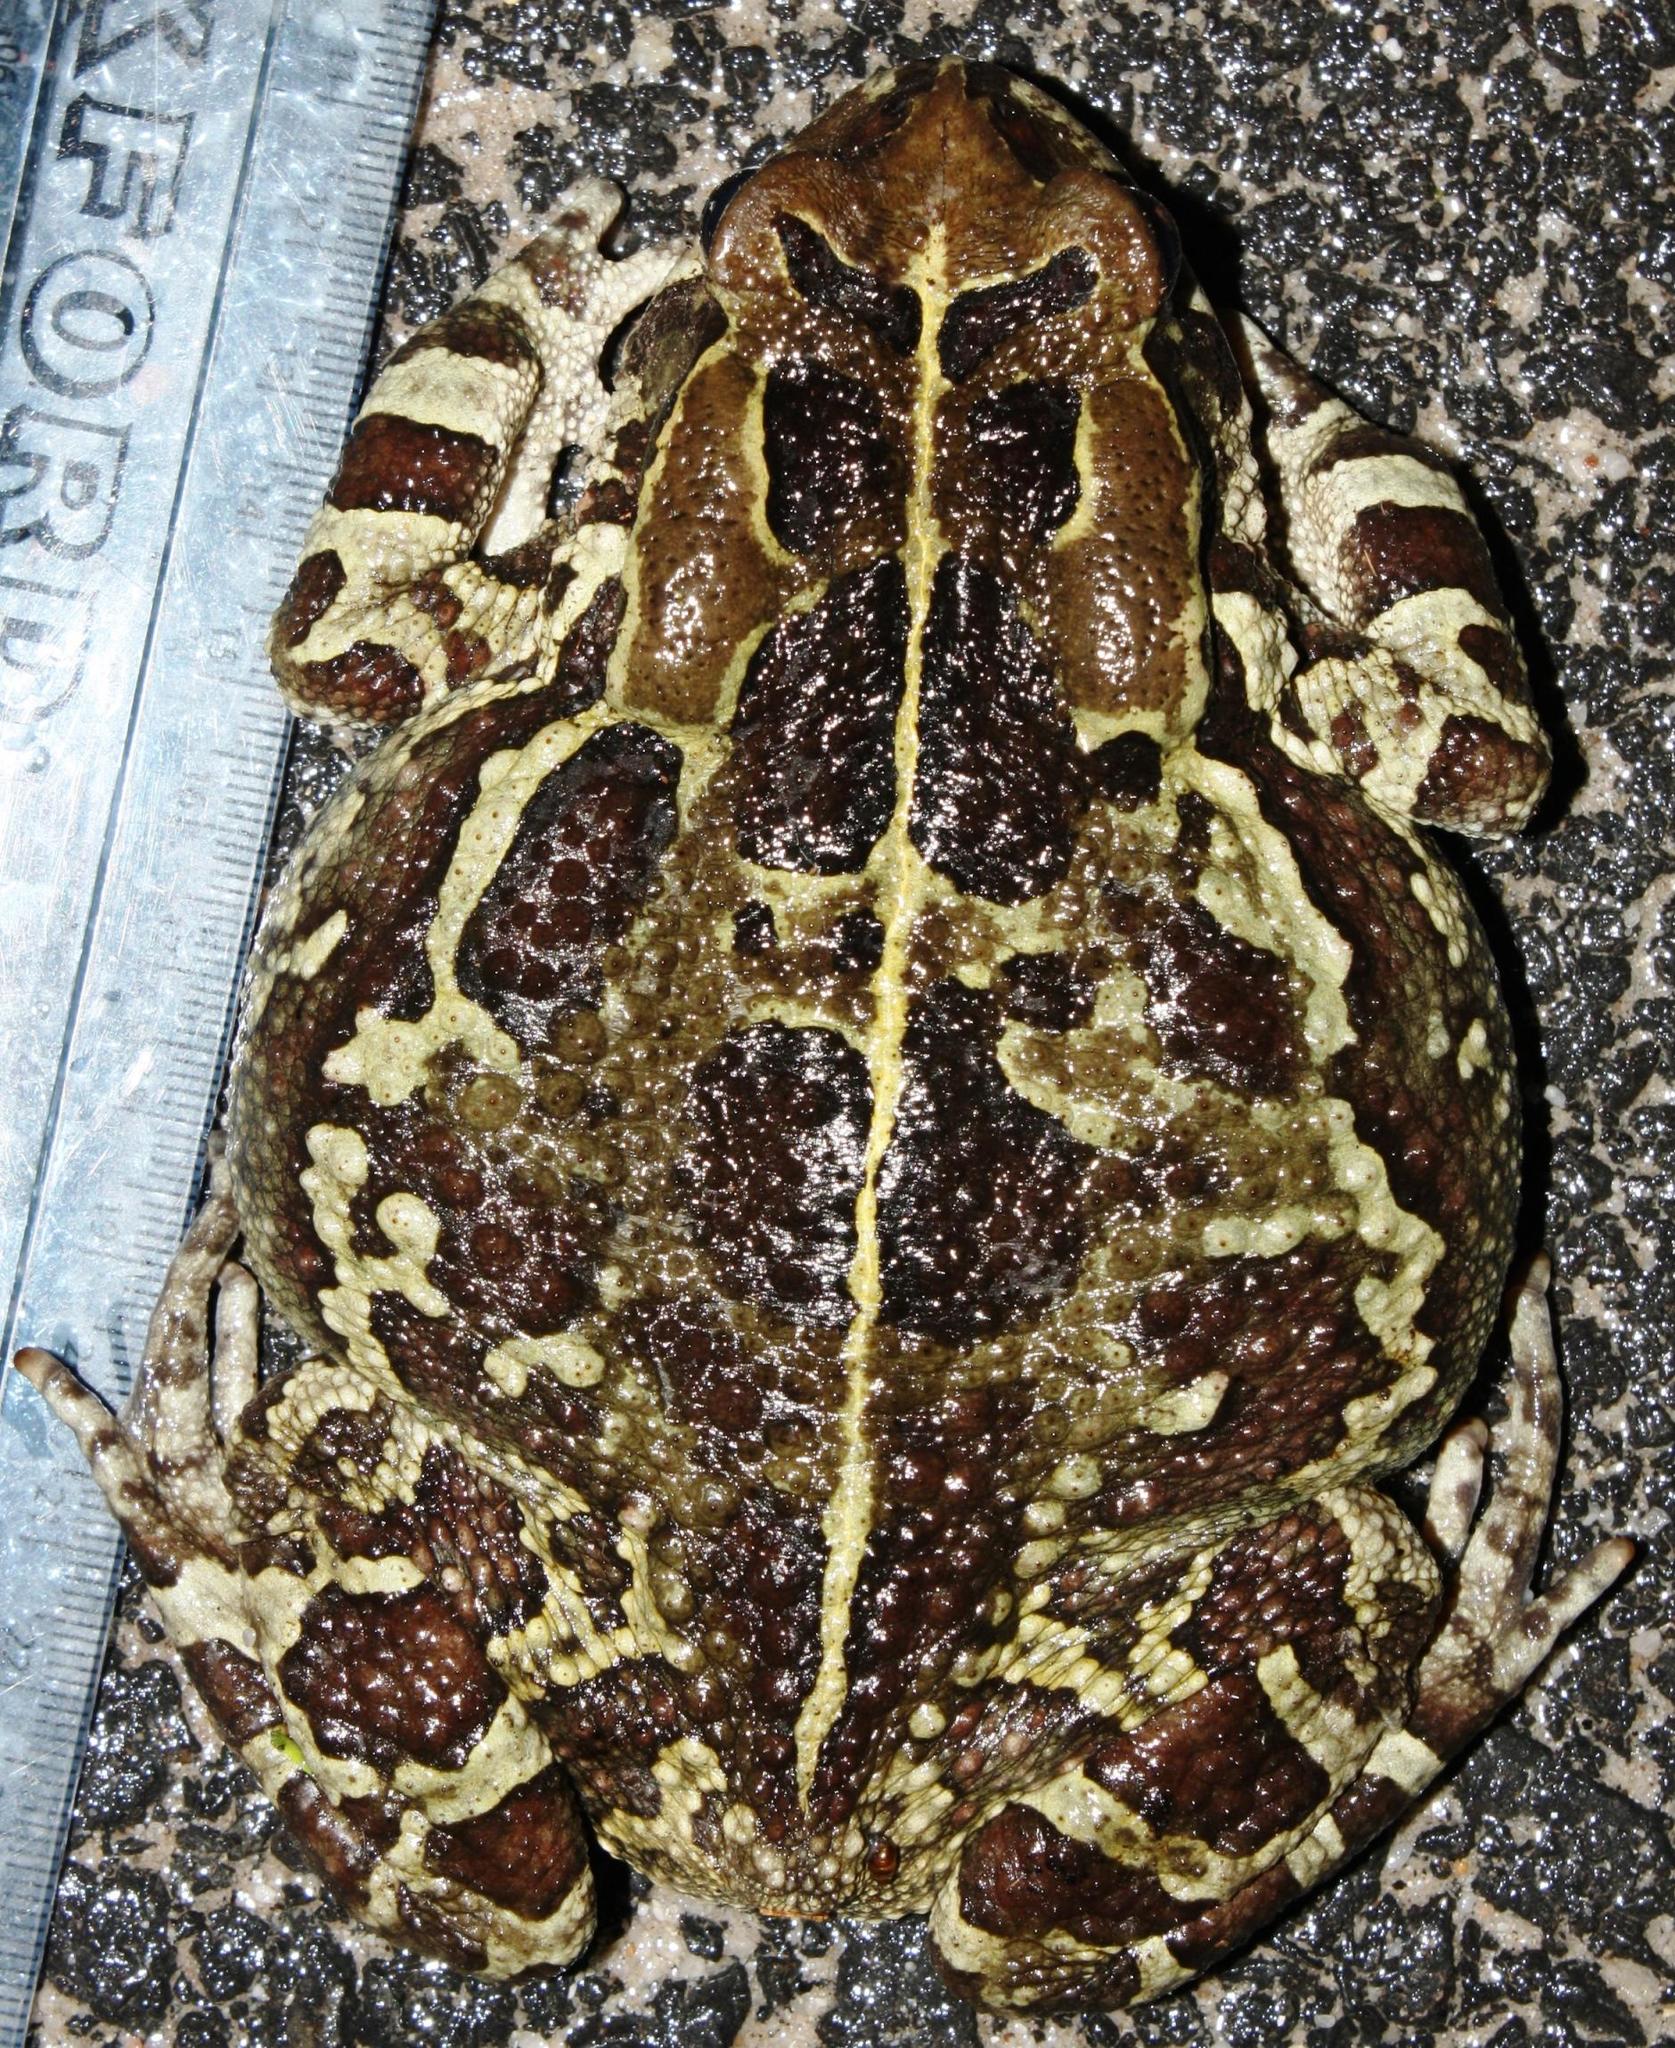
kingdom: Animalia
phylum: Chordata
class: Amphibia
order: Anura
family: Bufonidae
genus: Sclerophrys
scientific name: Sclerophrys pantherina
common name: Panther toad
